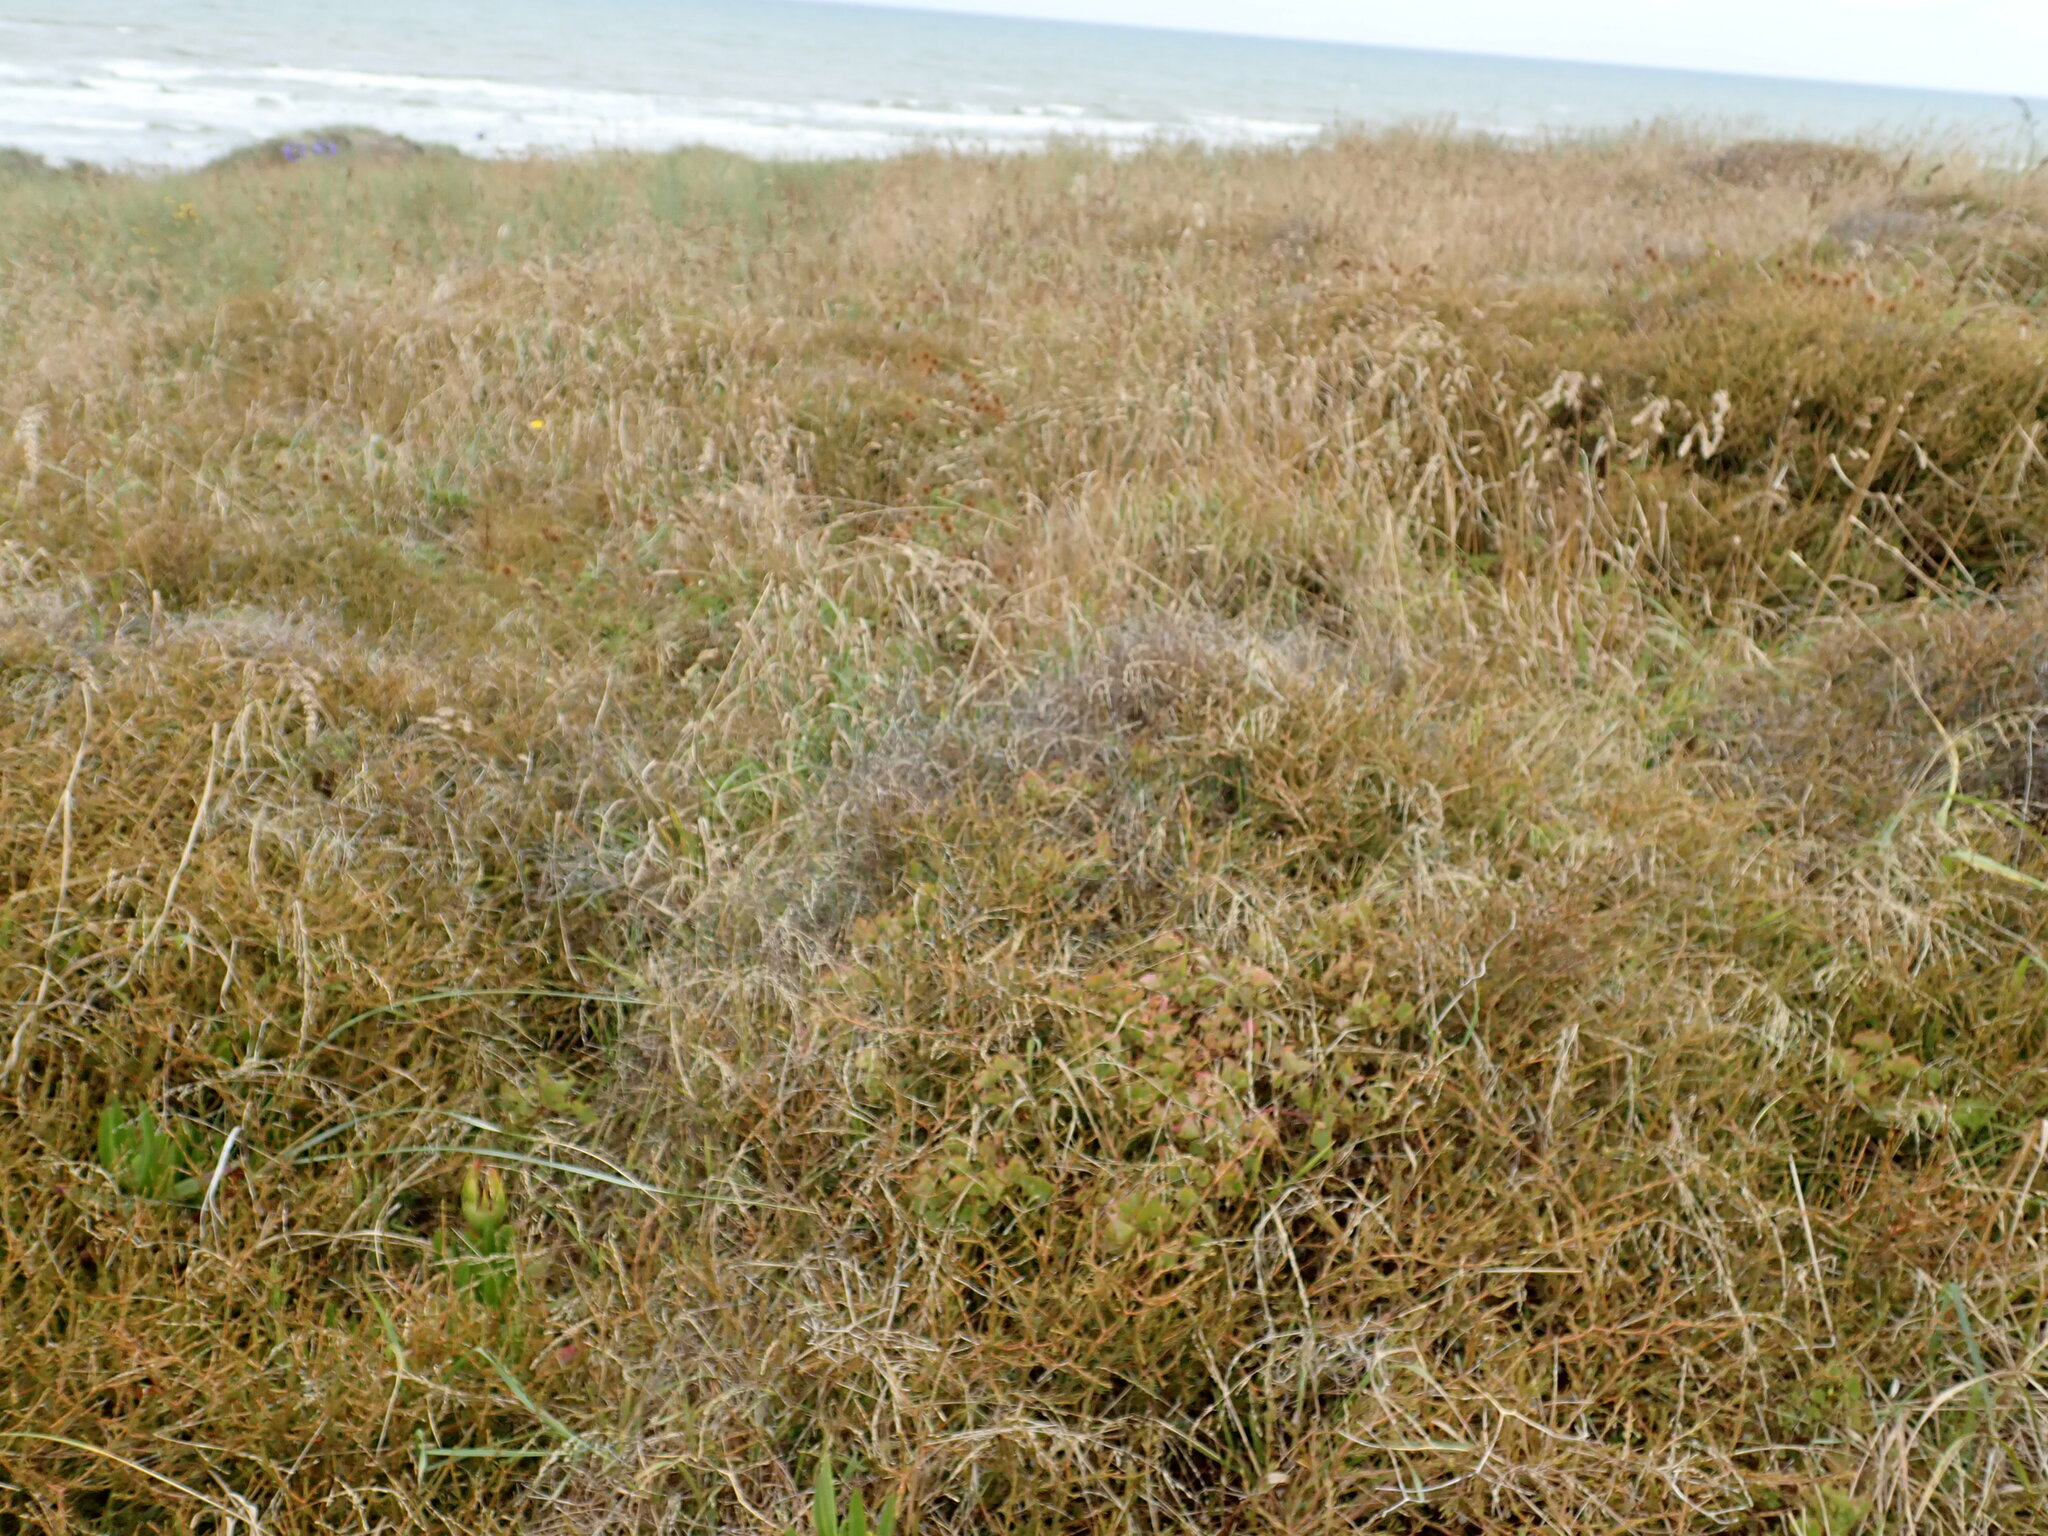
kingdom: Plantae
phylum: Tracheophyta
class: Magnoliopsida
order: Gentianales
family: Rubiaceae
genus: Coprosma
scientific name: Coprosma acerosa
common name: Sand coprosma
